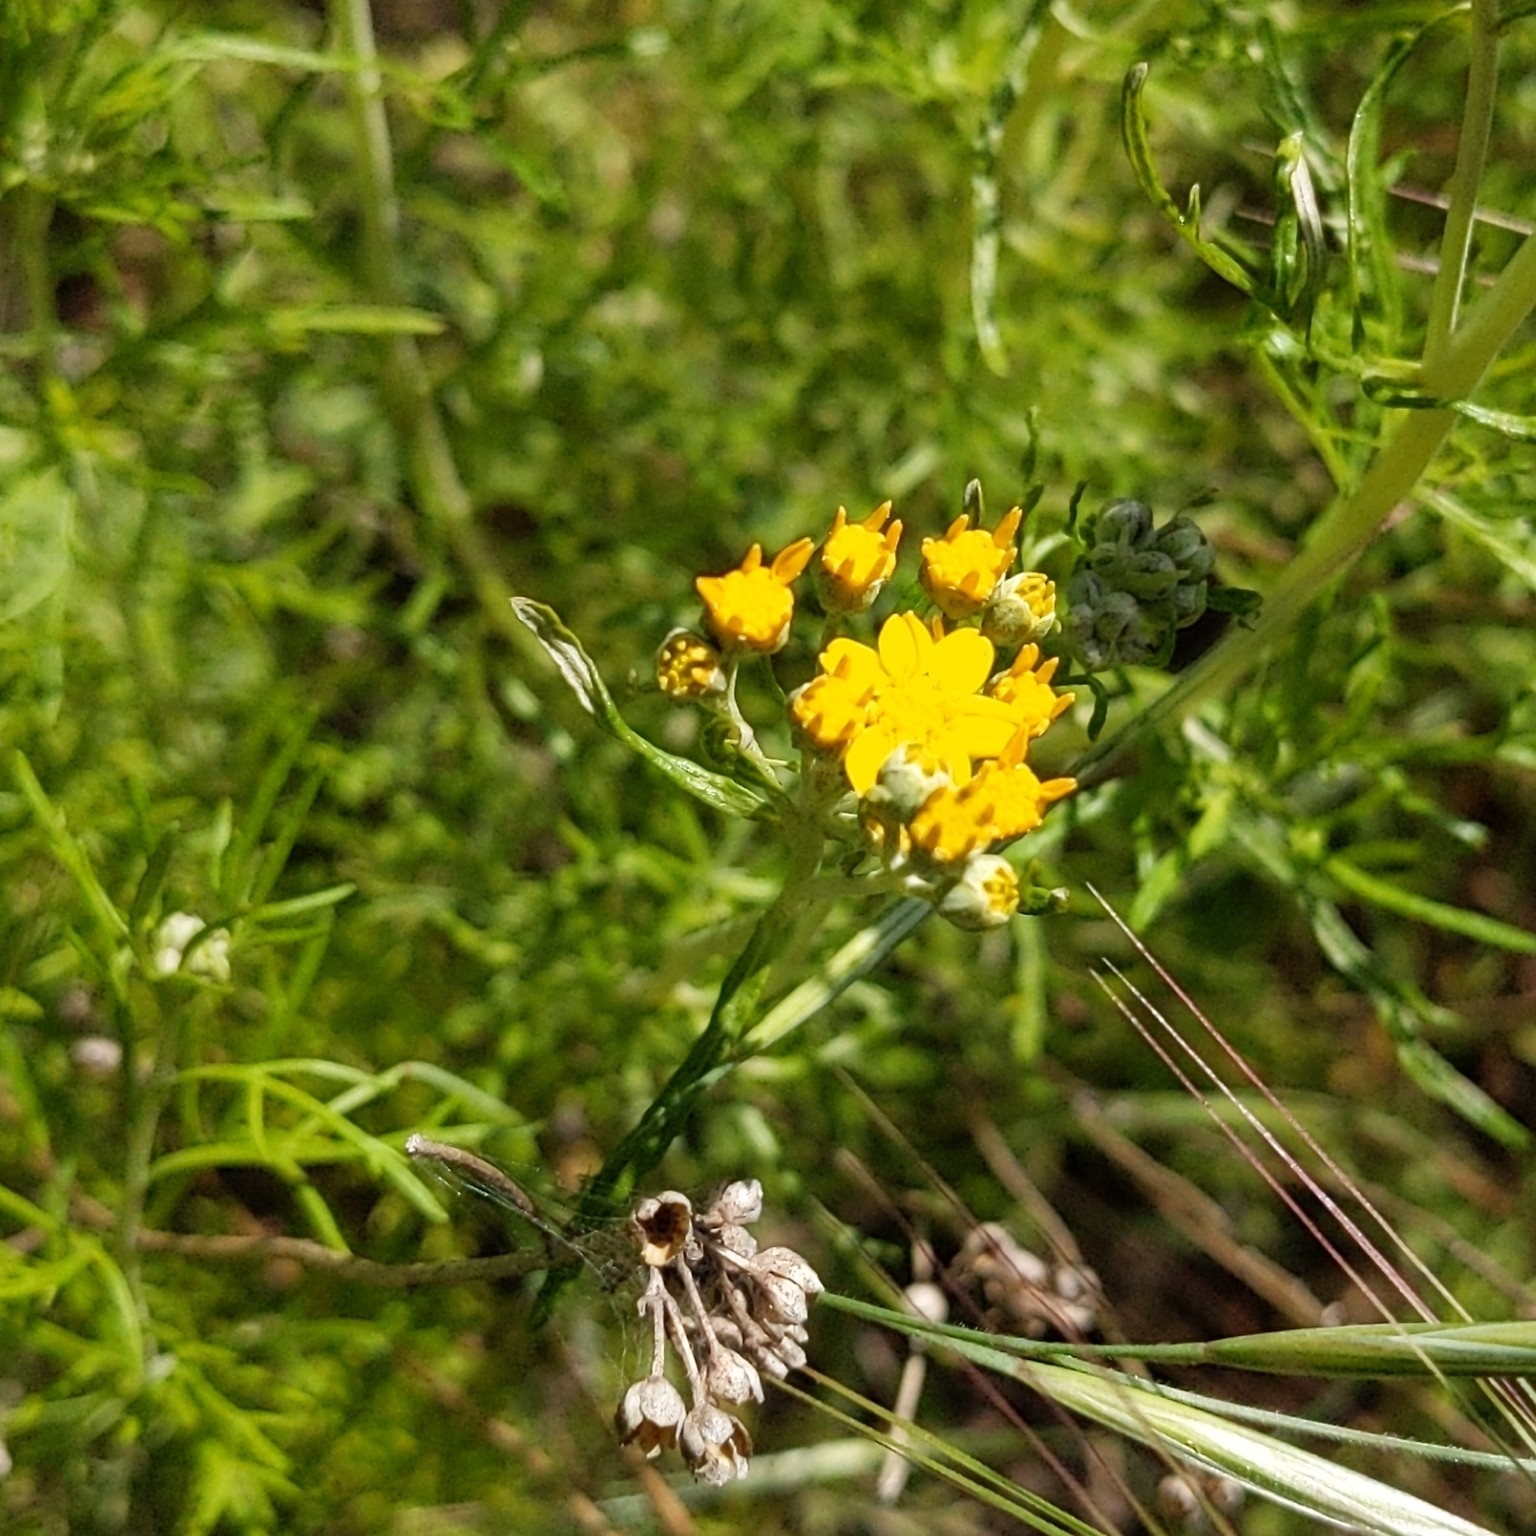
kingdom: Plantae
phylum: Tracheophyta
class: Magnoliopsida
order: Asterales
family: Asteraceae
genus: Eriophyllum
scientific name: Eriophyllum confertiflorum
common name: Golden-yarrow
